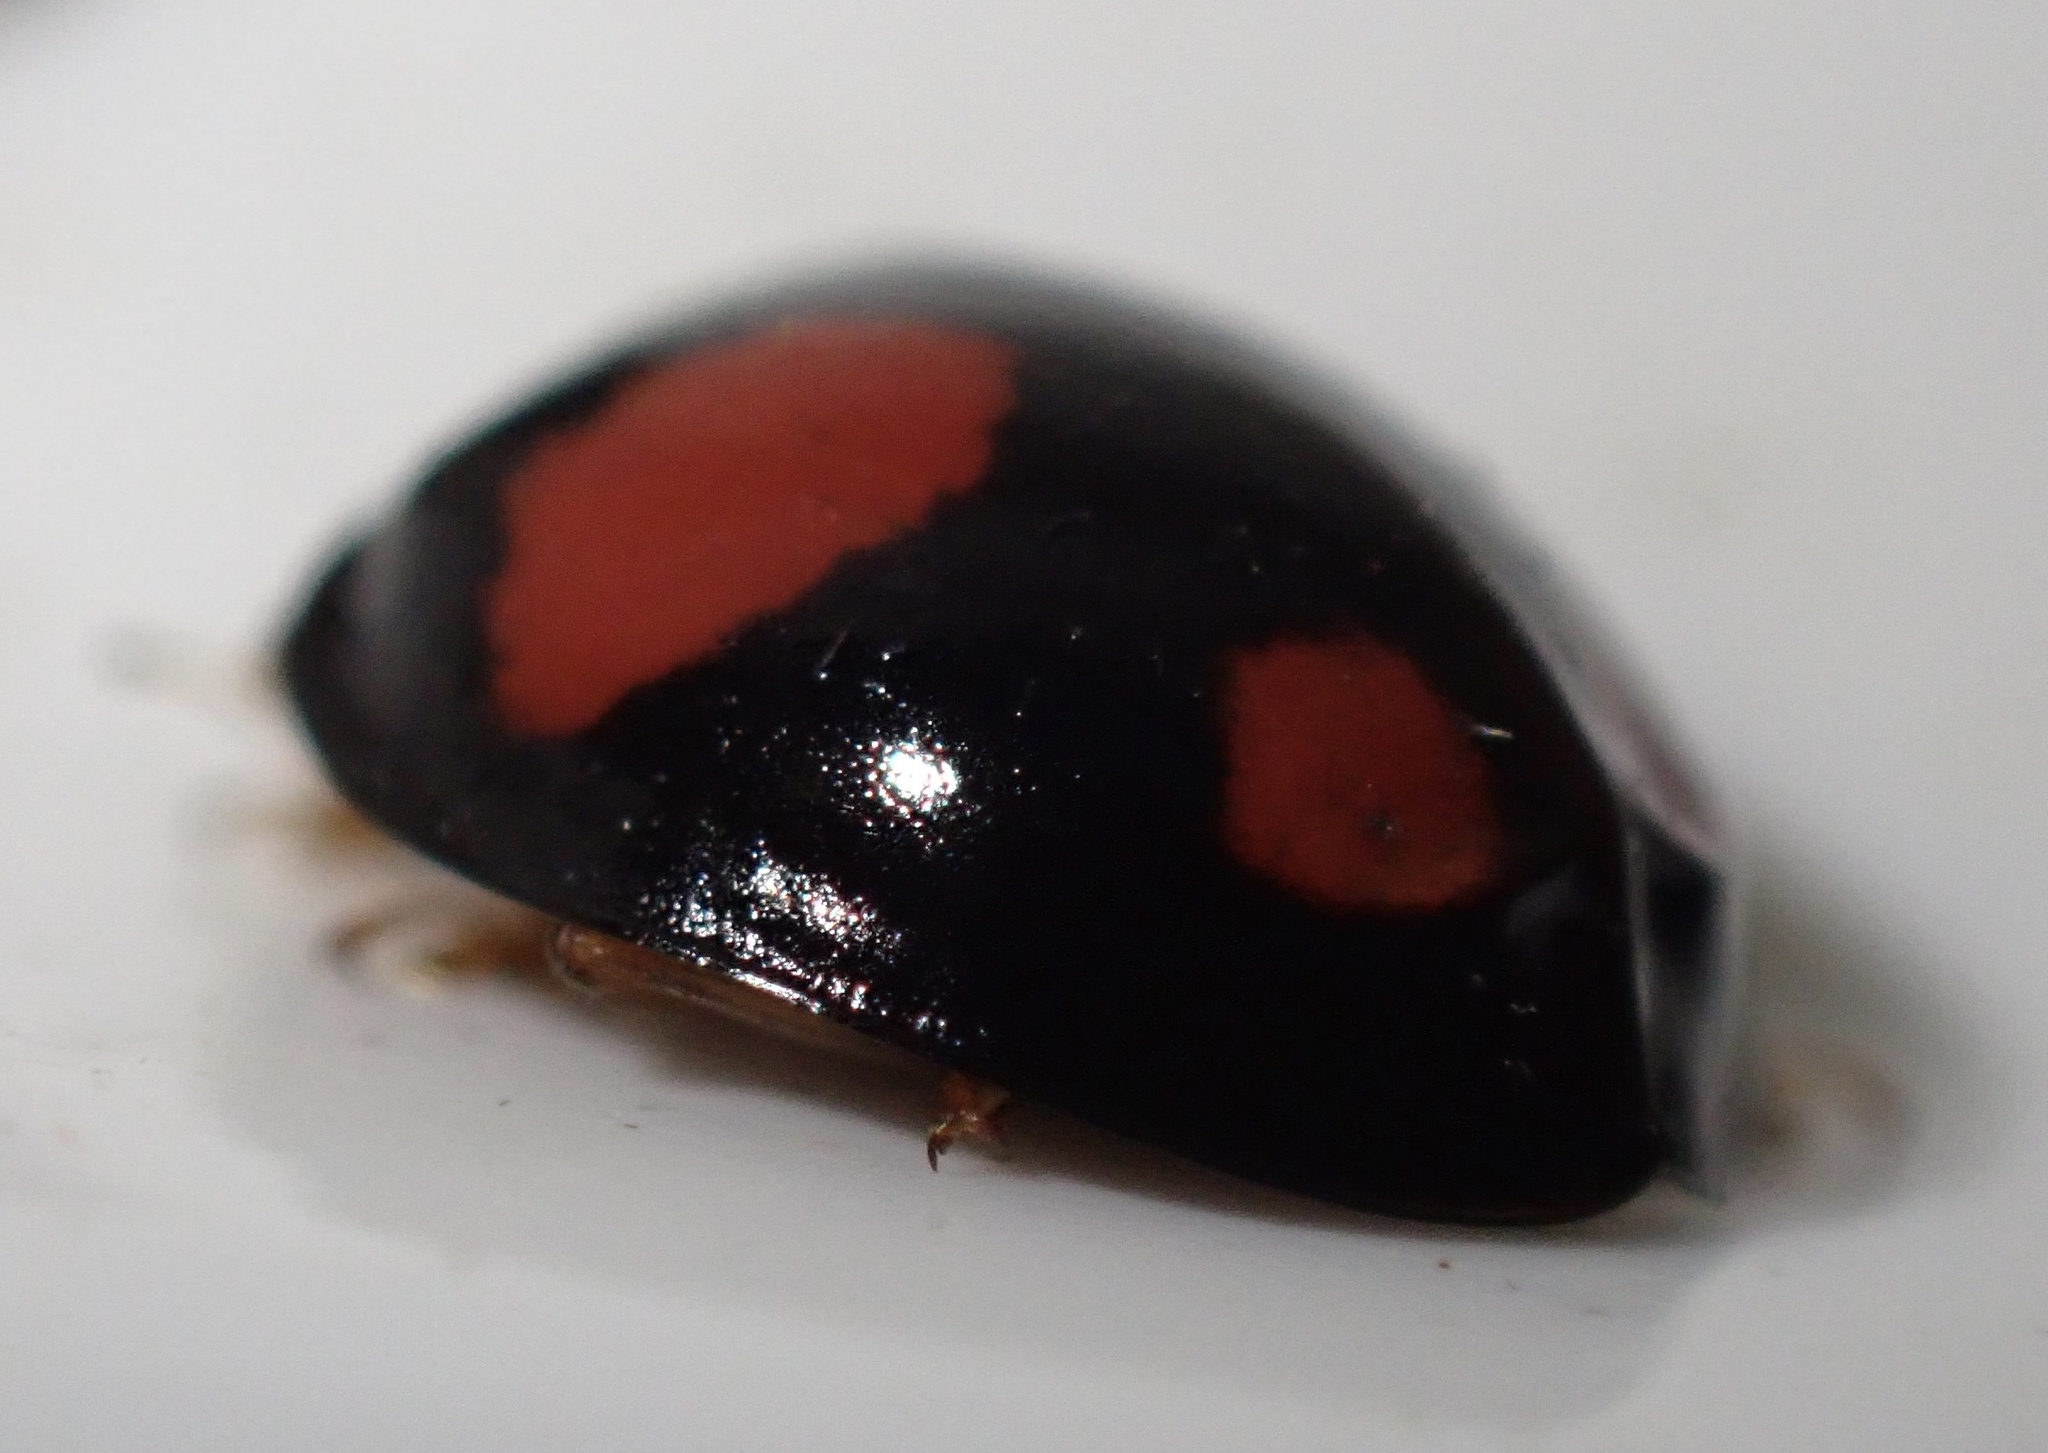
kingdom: Animalia
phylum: Arthropoda
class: Insecta
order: Coleoptera
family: Coccinellidae
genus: Harmonia
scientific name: Harmonia axyridis
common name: Harlequin ladybird
